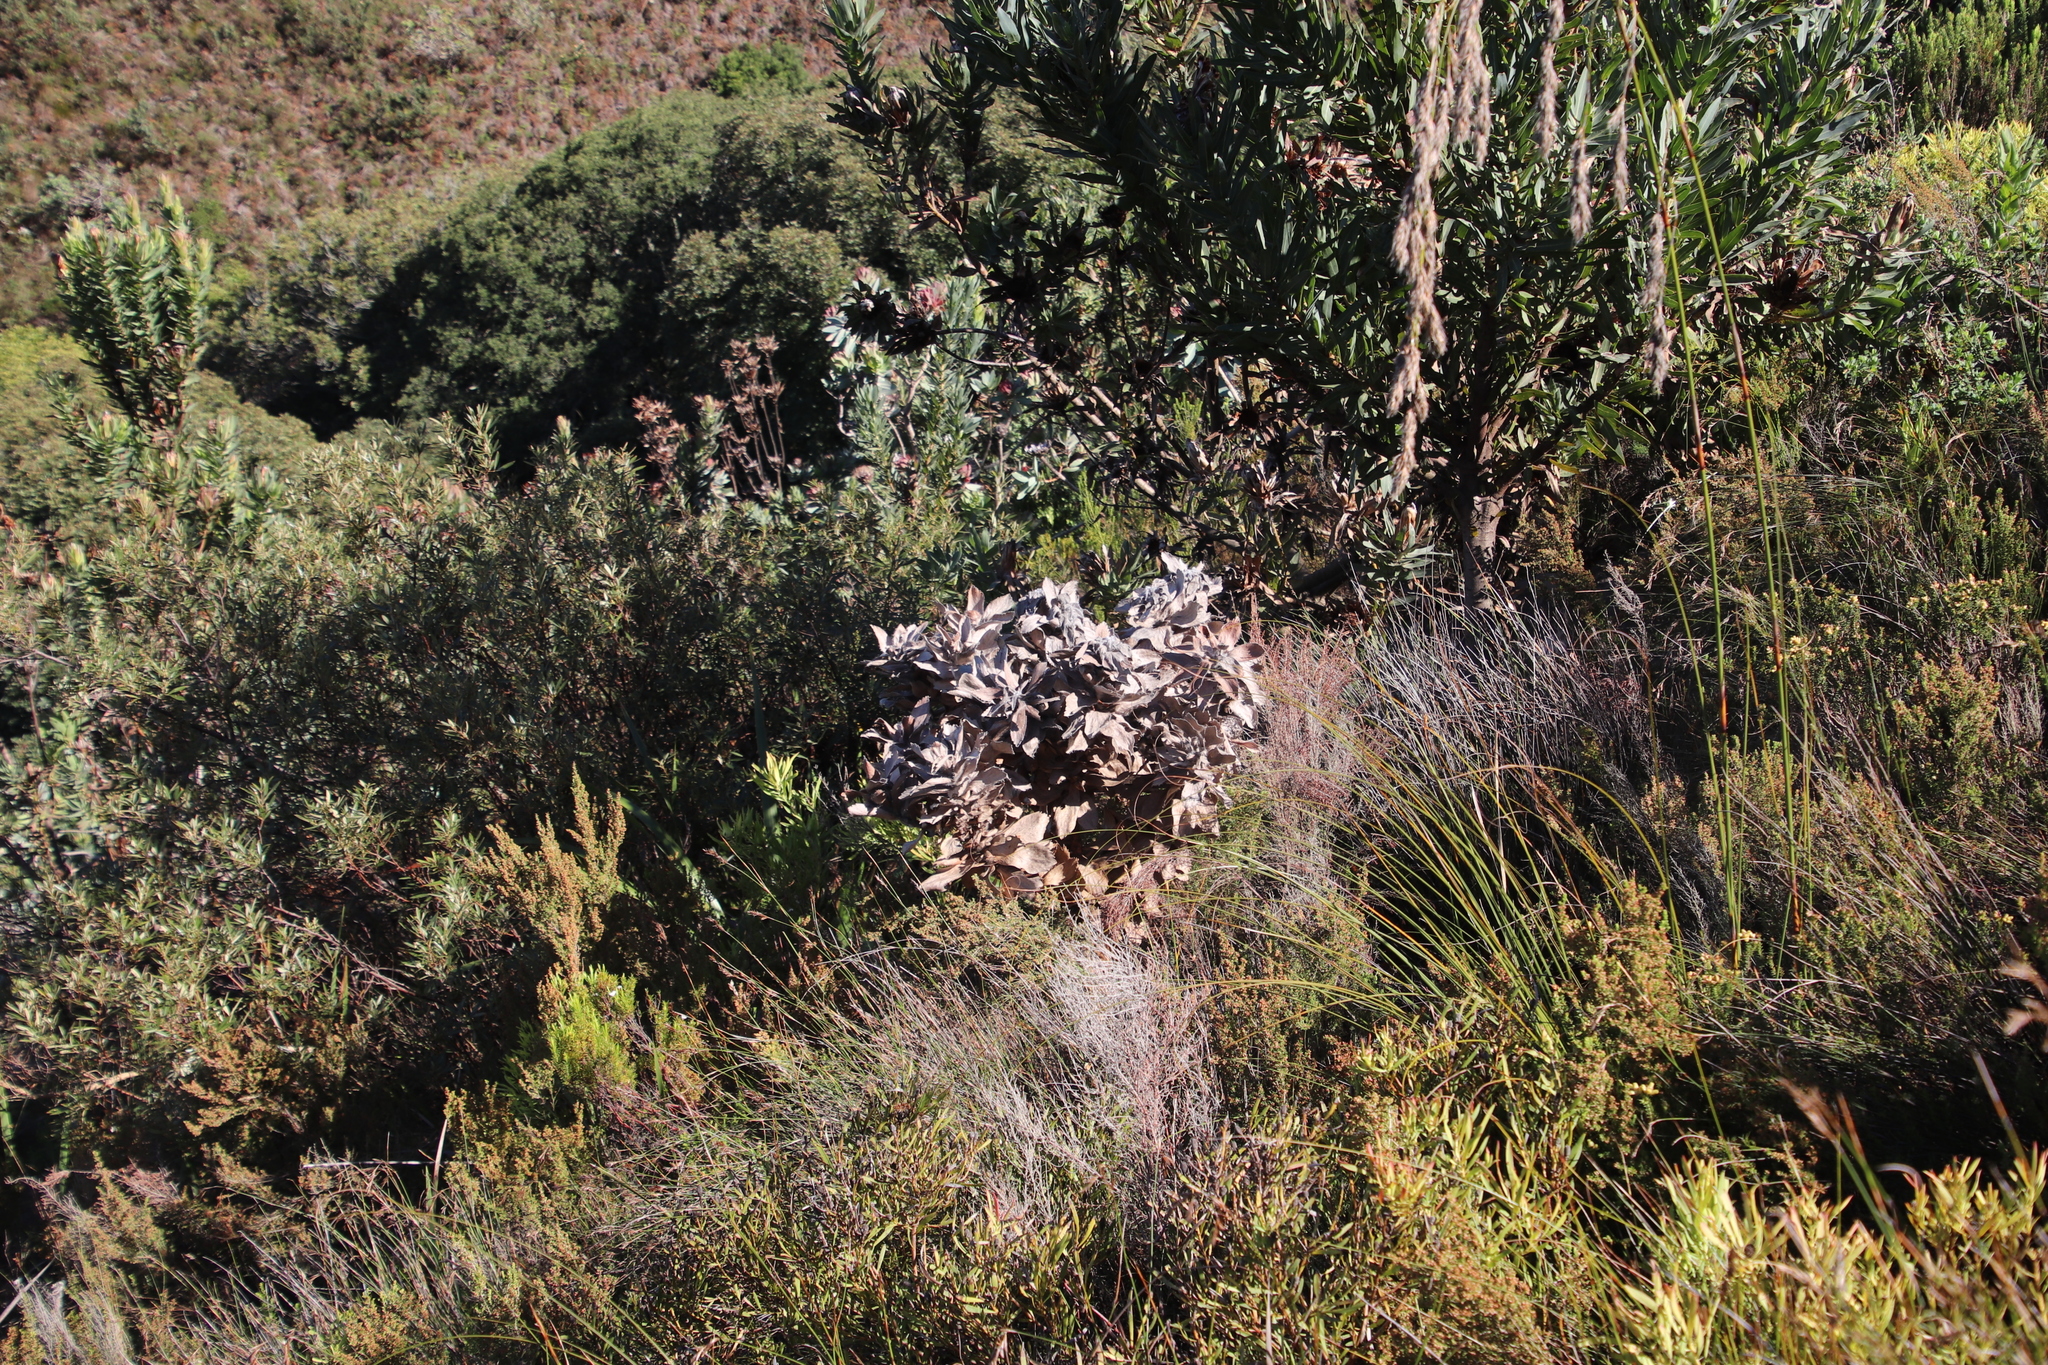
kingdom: Plantae
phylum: Tracheophyta
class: Magnoliopsida
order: Proteales
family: Proteaceae
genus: Leucospermum
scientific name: Leucospermum conocarpodendron
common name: Tree pincushion
